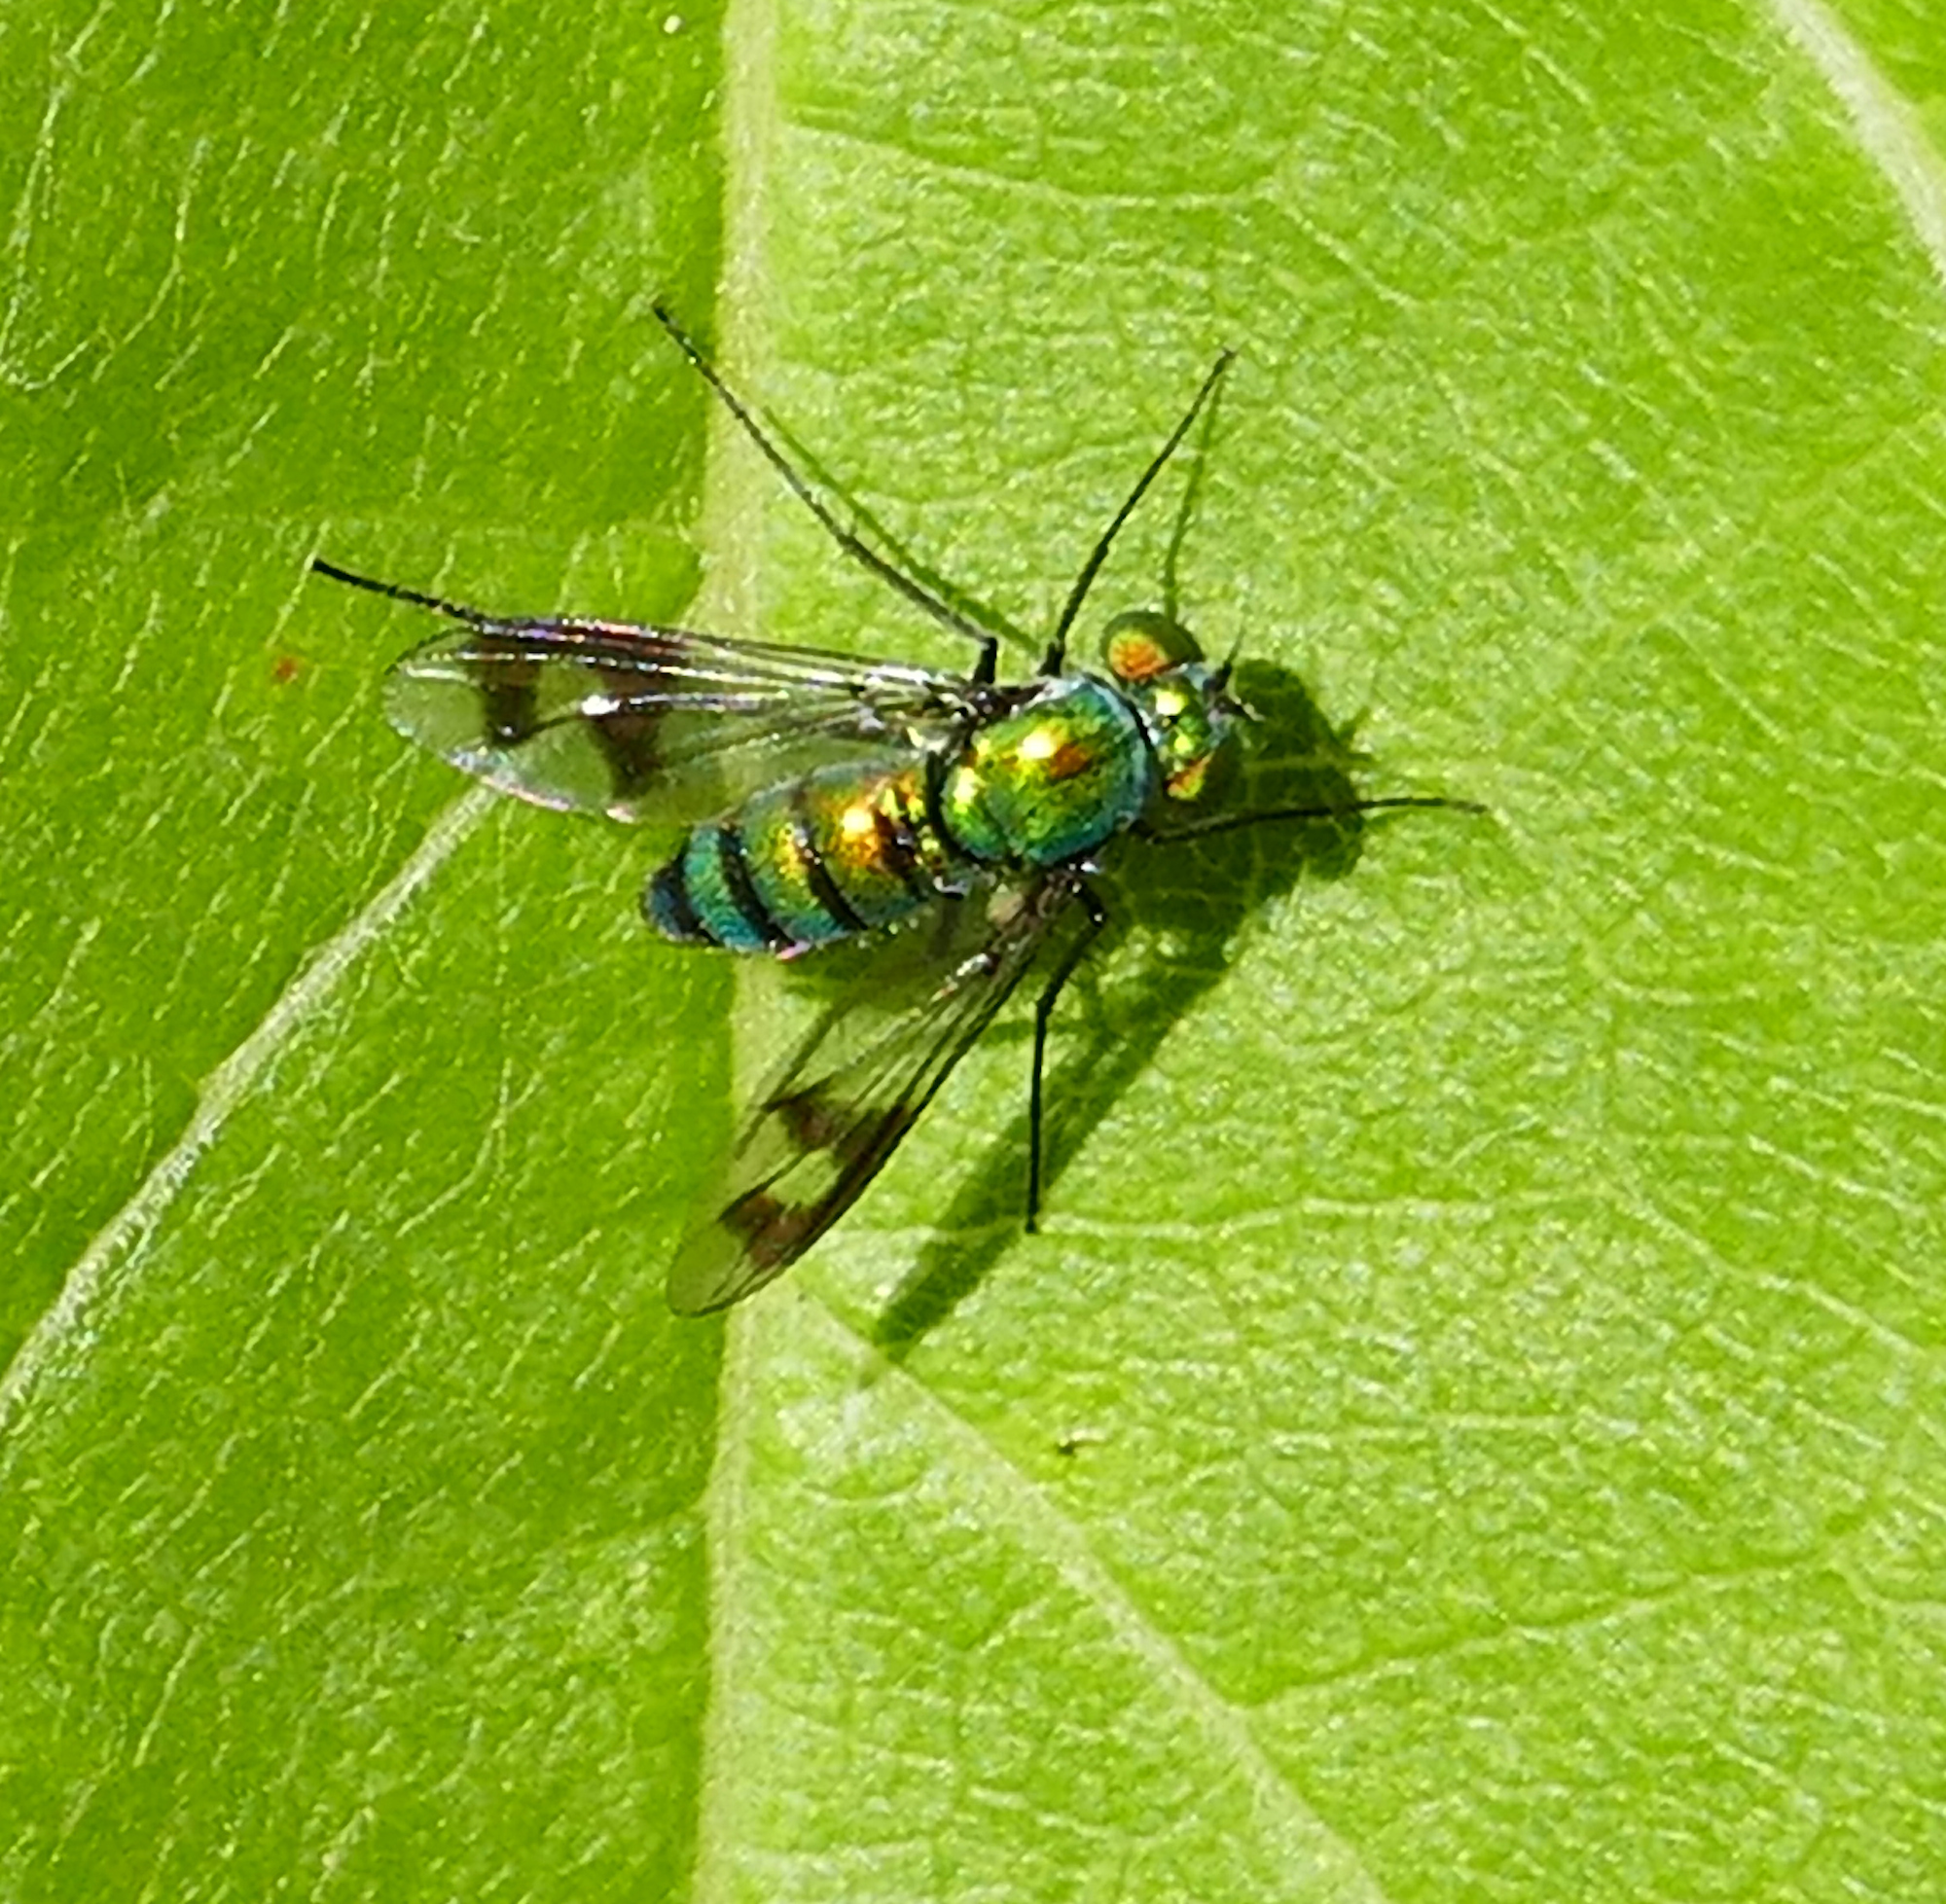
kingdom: Animalia
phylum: Arthropoda
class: Insecta
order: Diptera
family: Dolichopodidae
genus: Condylostylus
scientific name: Condylostylus
